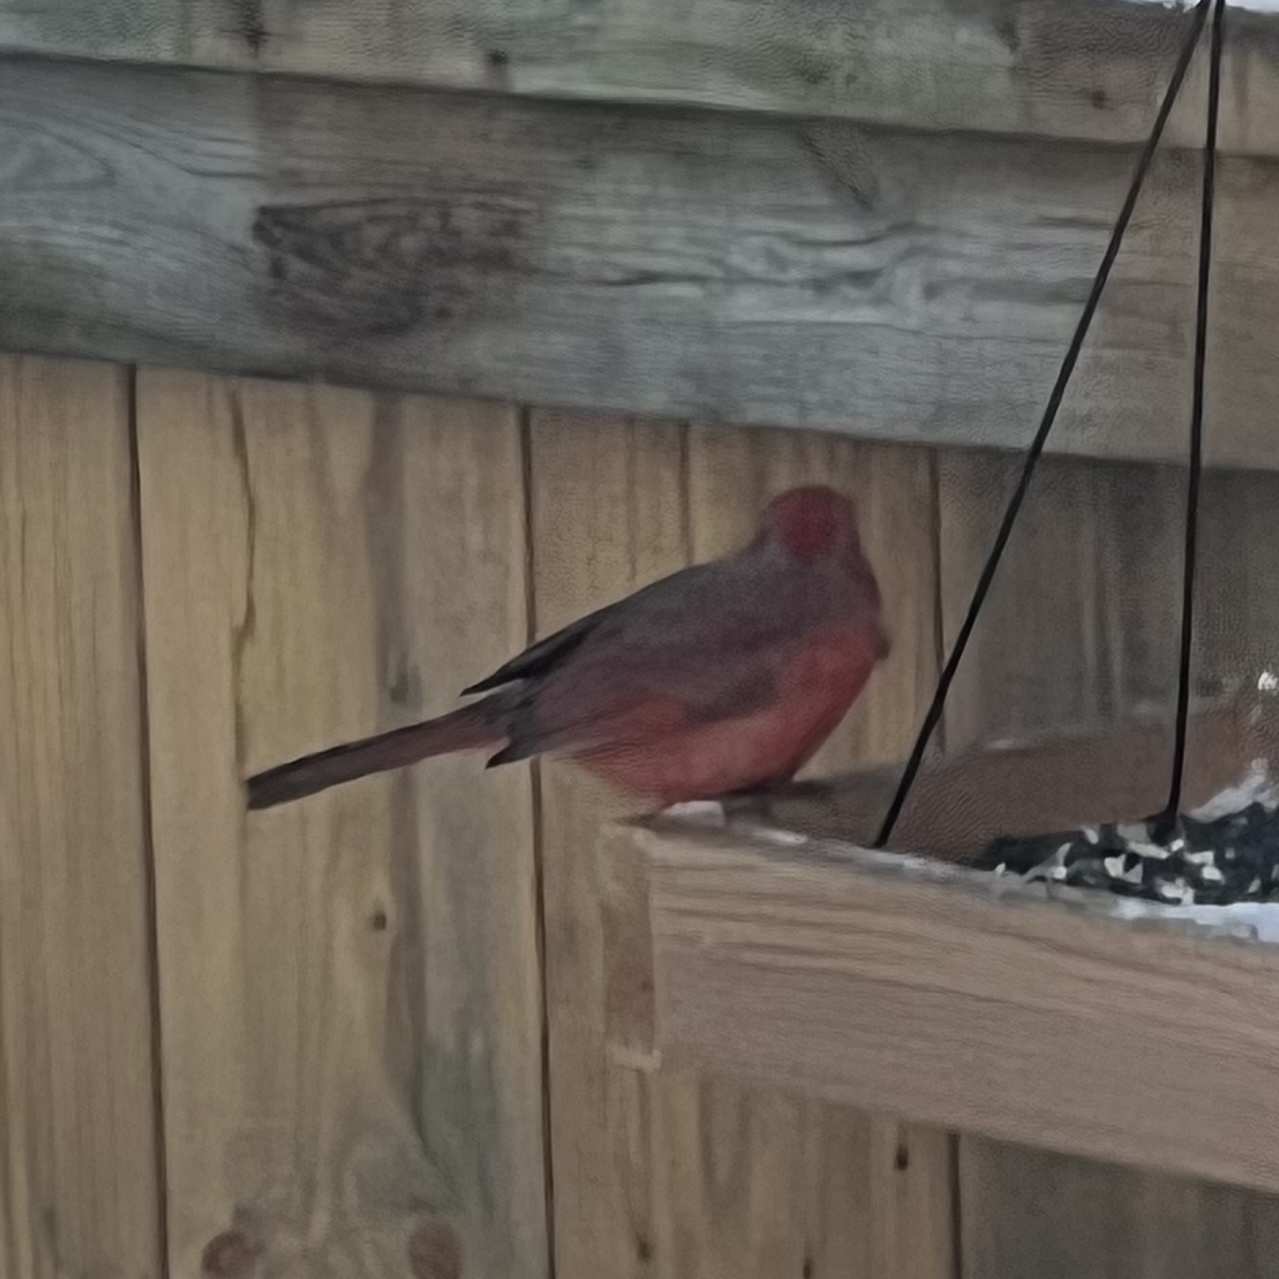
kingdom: Animalia
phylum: Chordata
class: Aves
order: Passeriformes
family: Cardinalidae
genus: Cardinalis
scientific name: Cardinalis cardinalis
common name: Northern cardinal
